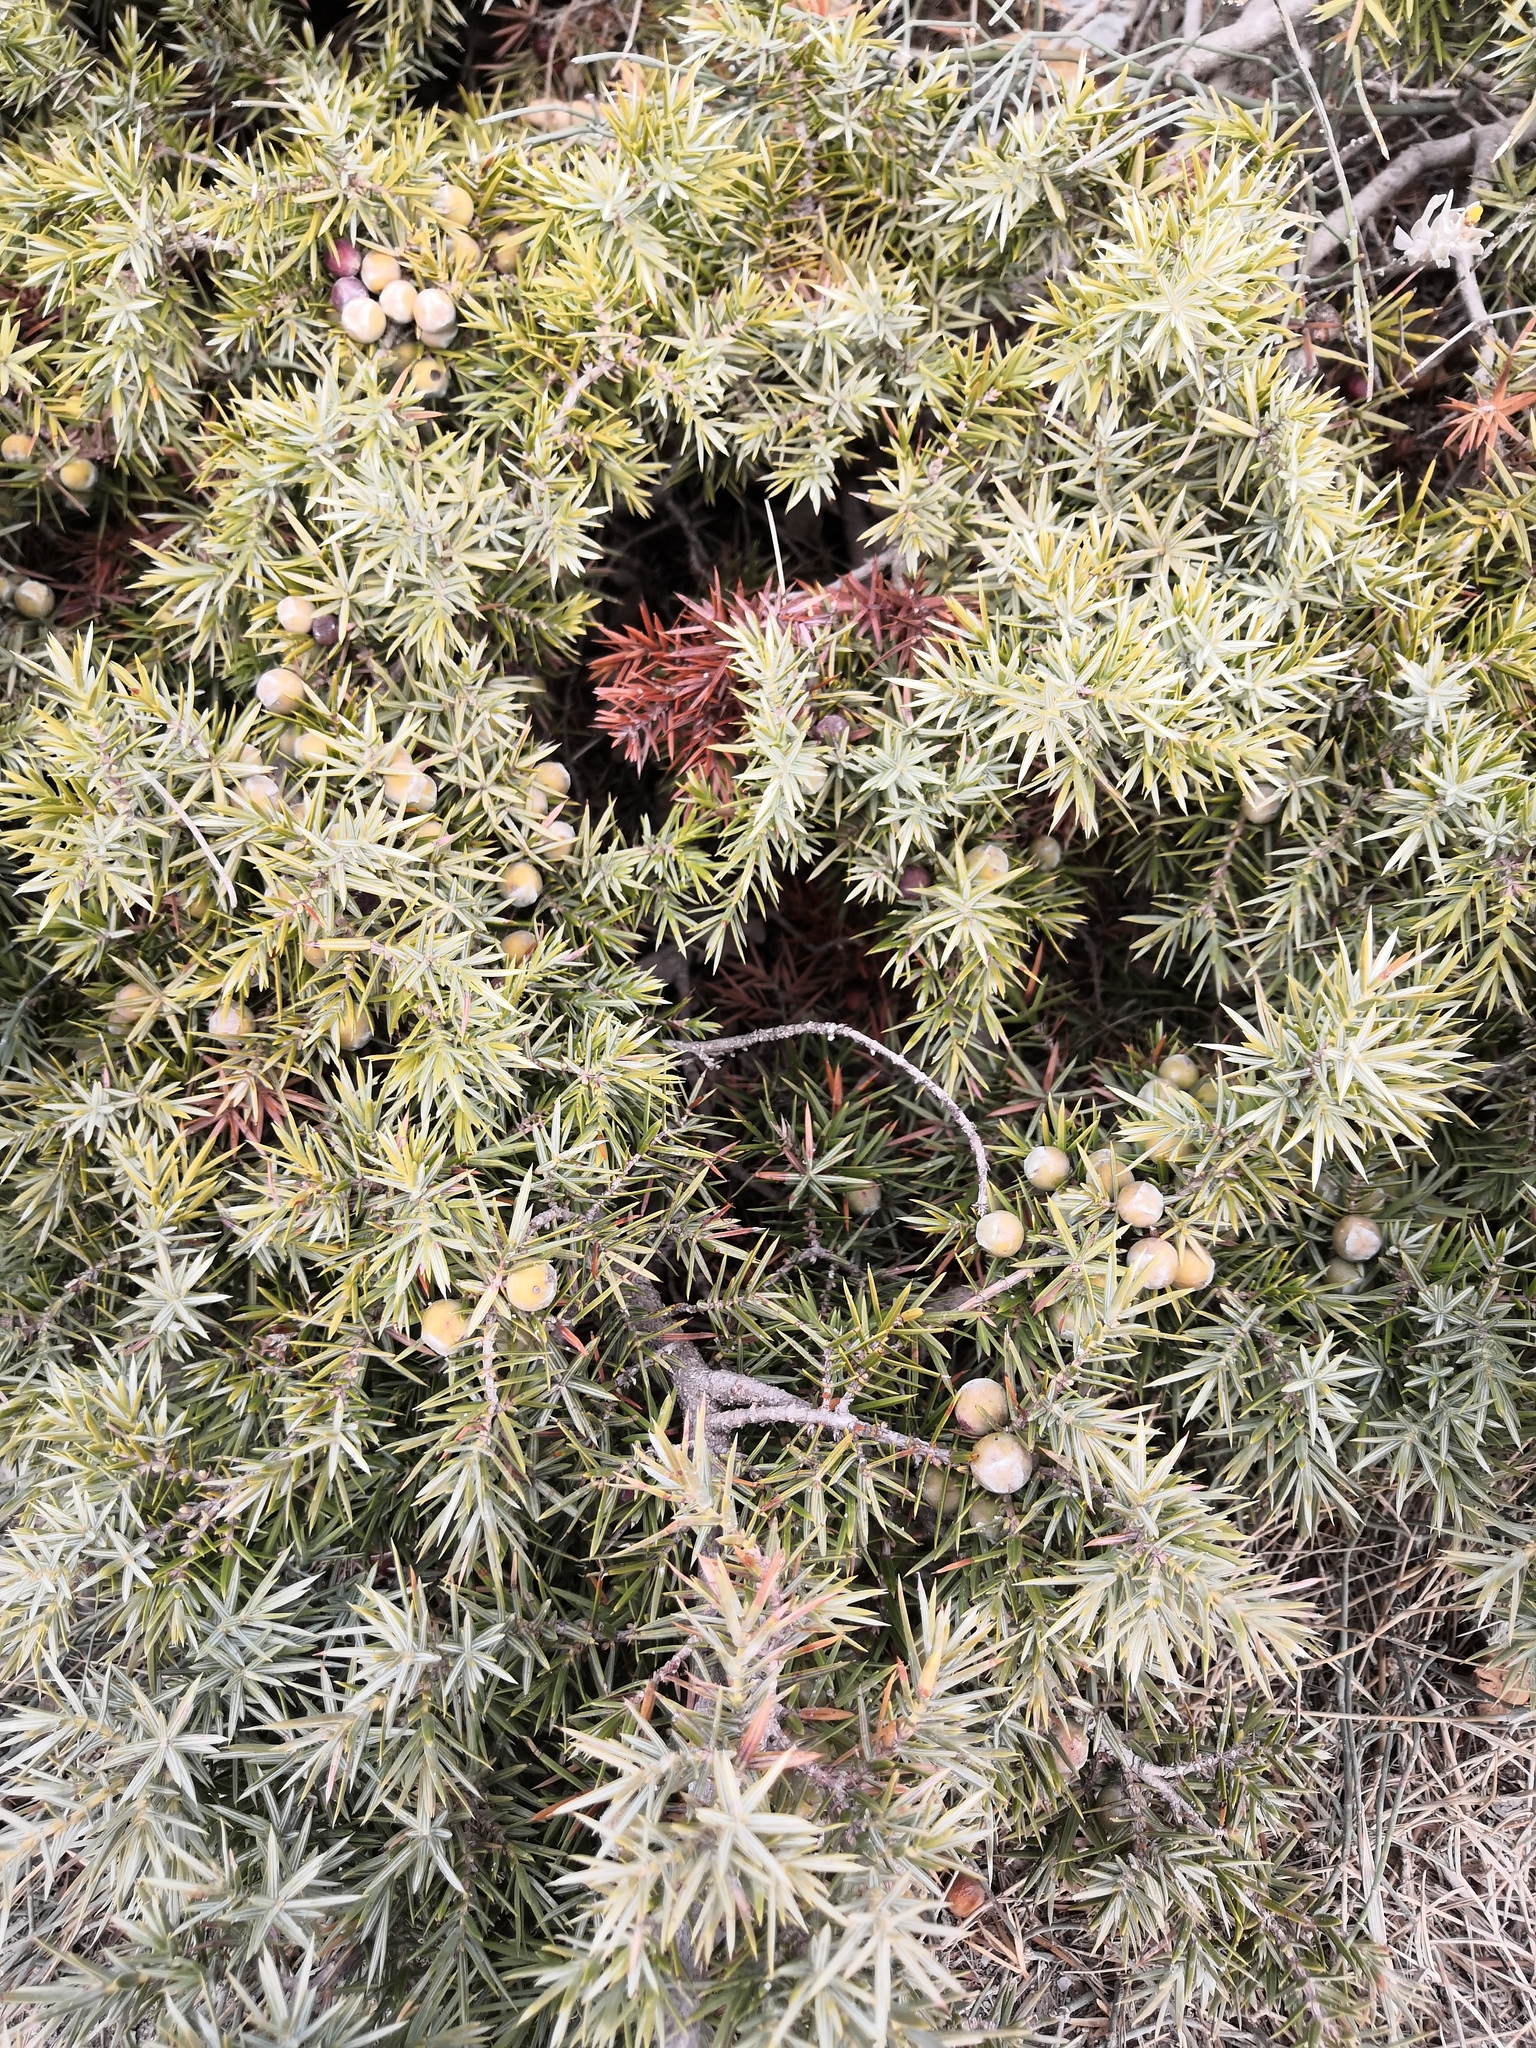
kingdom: Plantae
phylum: Tracheophyta
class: Pinopsida
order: Pinales
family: Cupressaceae
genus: Juniperus
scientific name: Juniperus oxycedrus
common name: Prickly juniper
